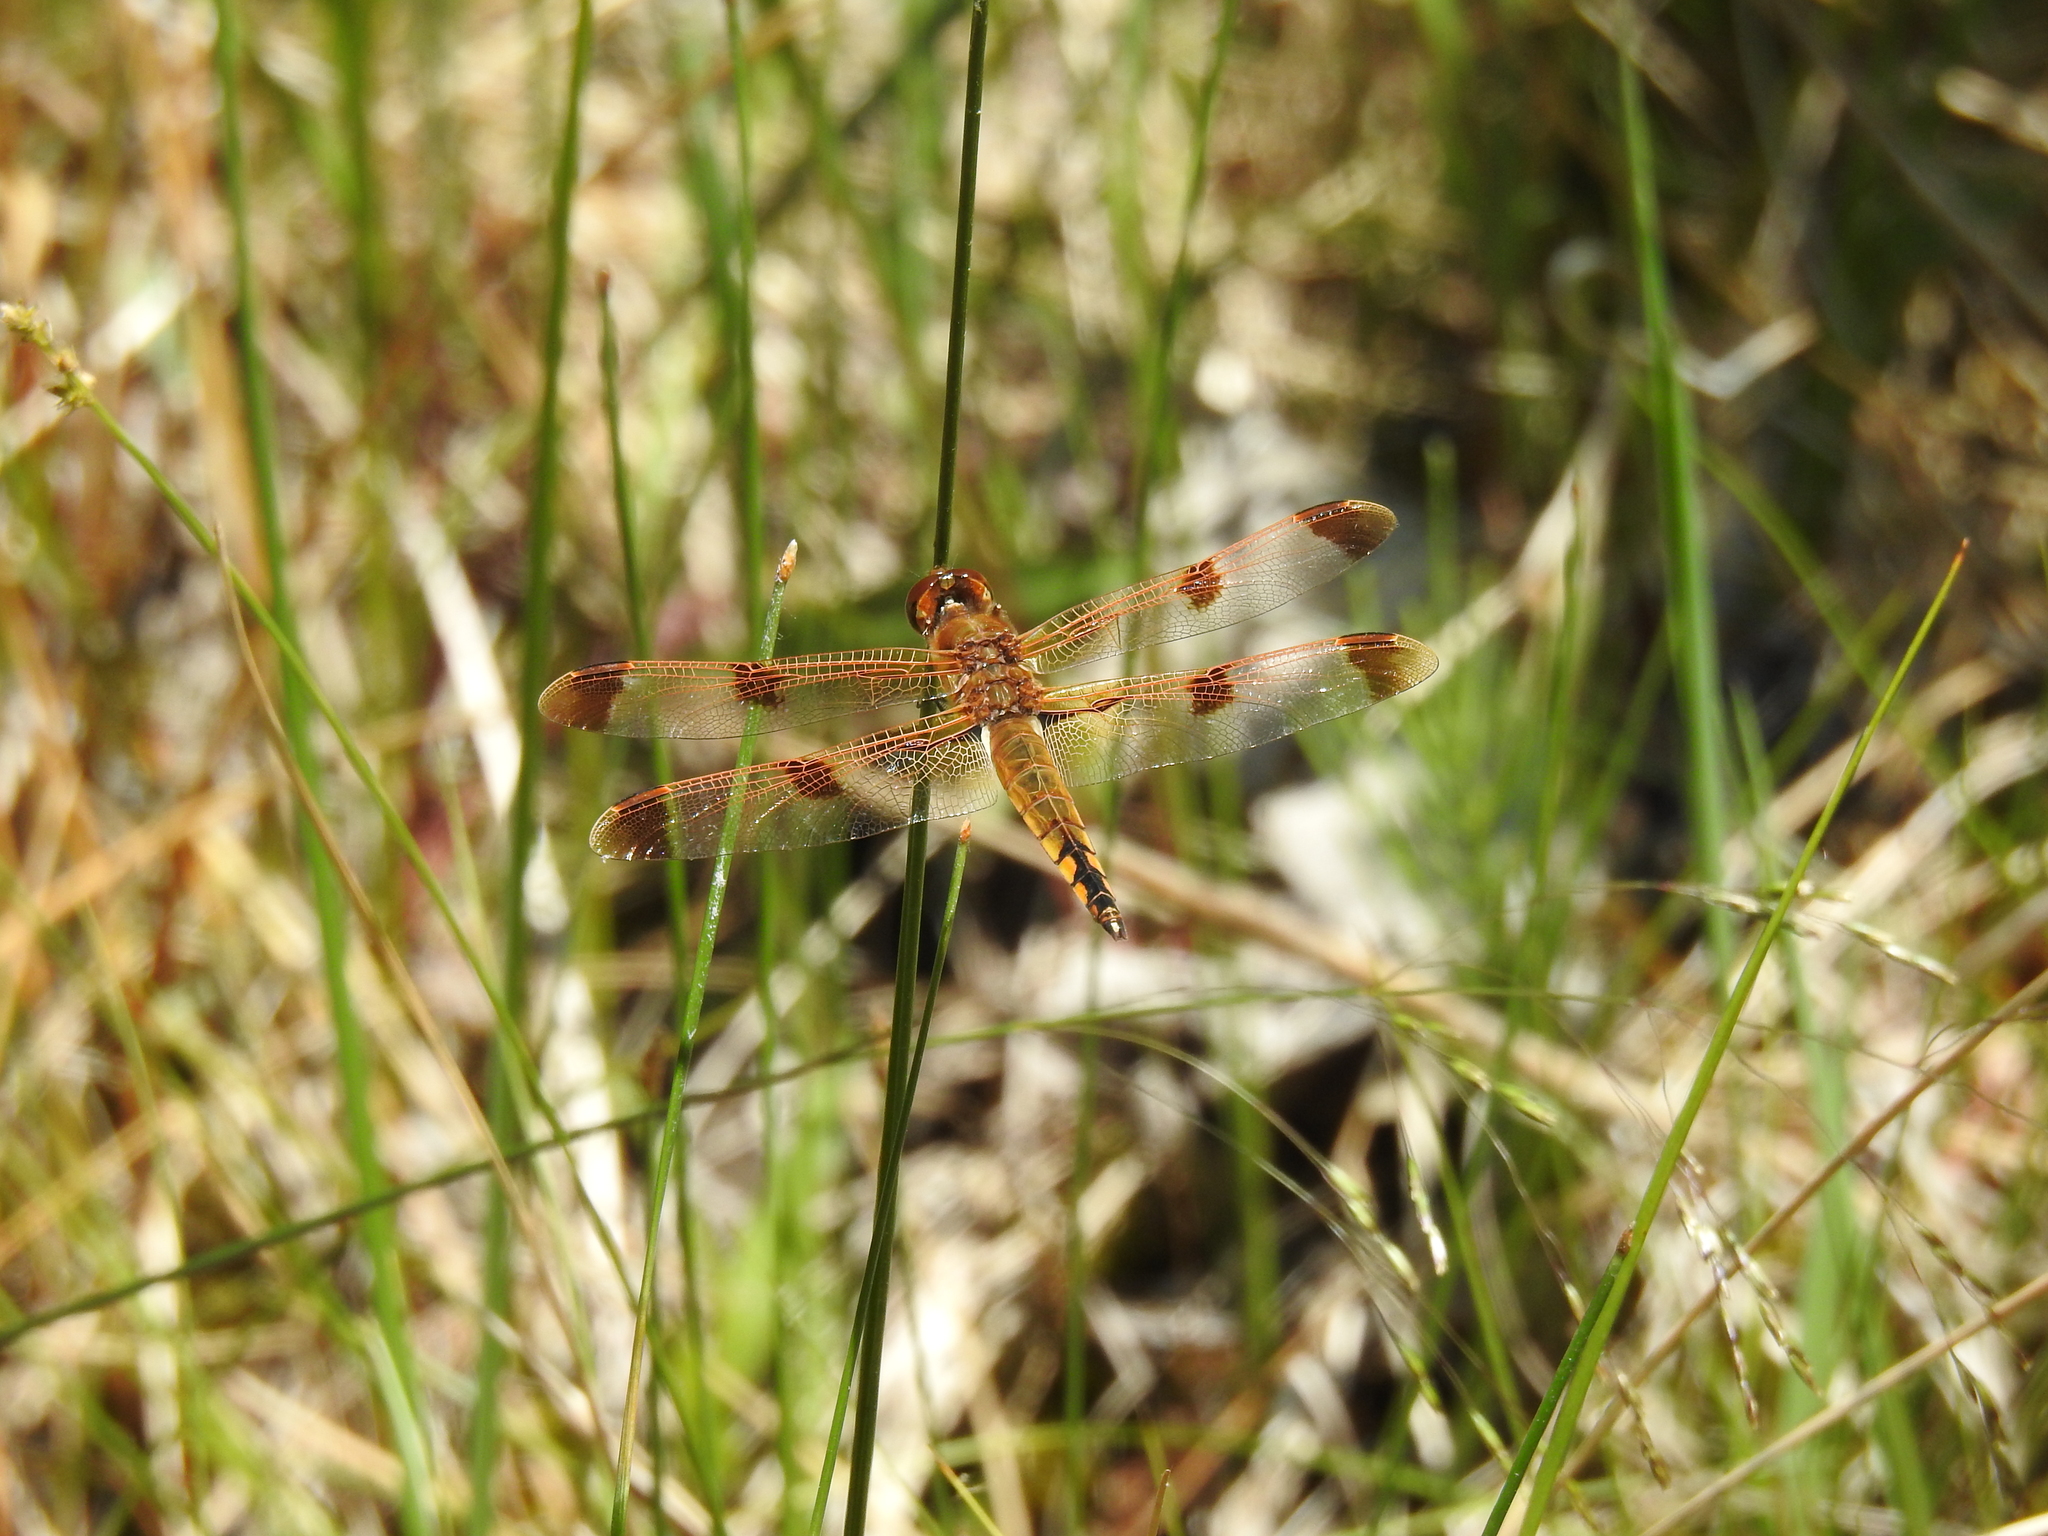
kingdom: Animalia
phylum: Arthropoda
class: Insecta
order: Odonata
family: Libellulidae
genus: Libellula
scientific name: Libellula semifasciata
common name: Painted skimmer
